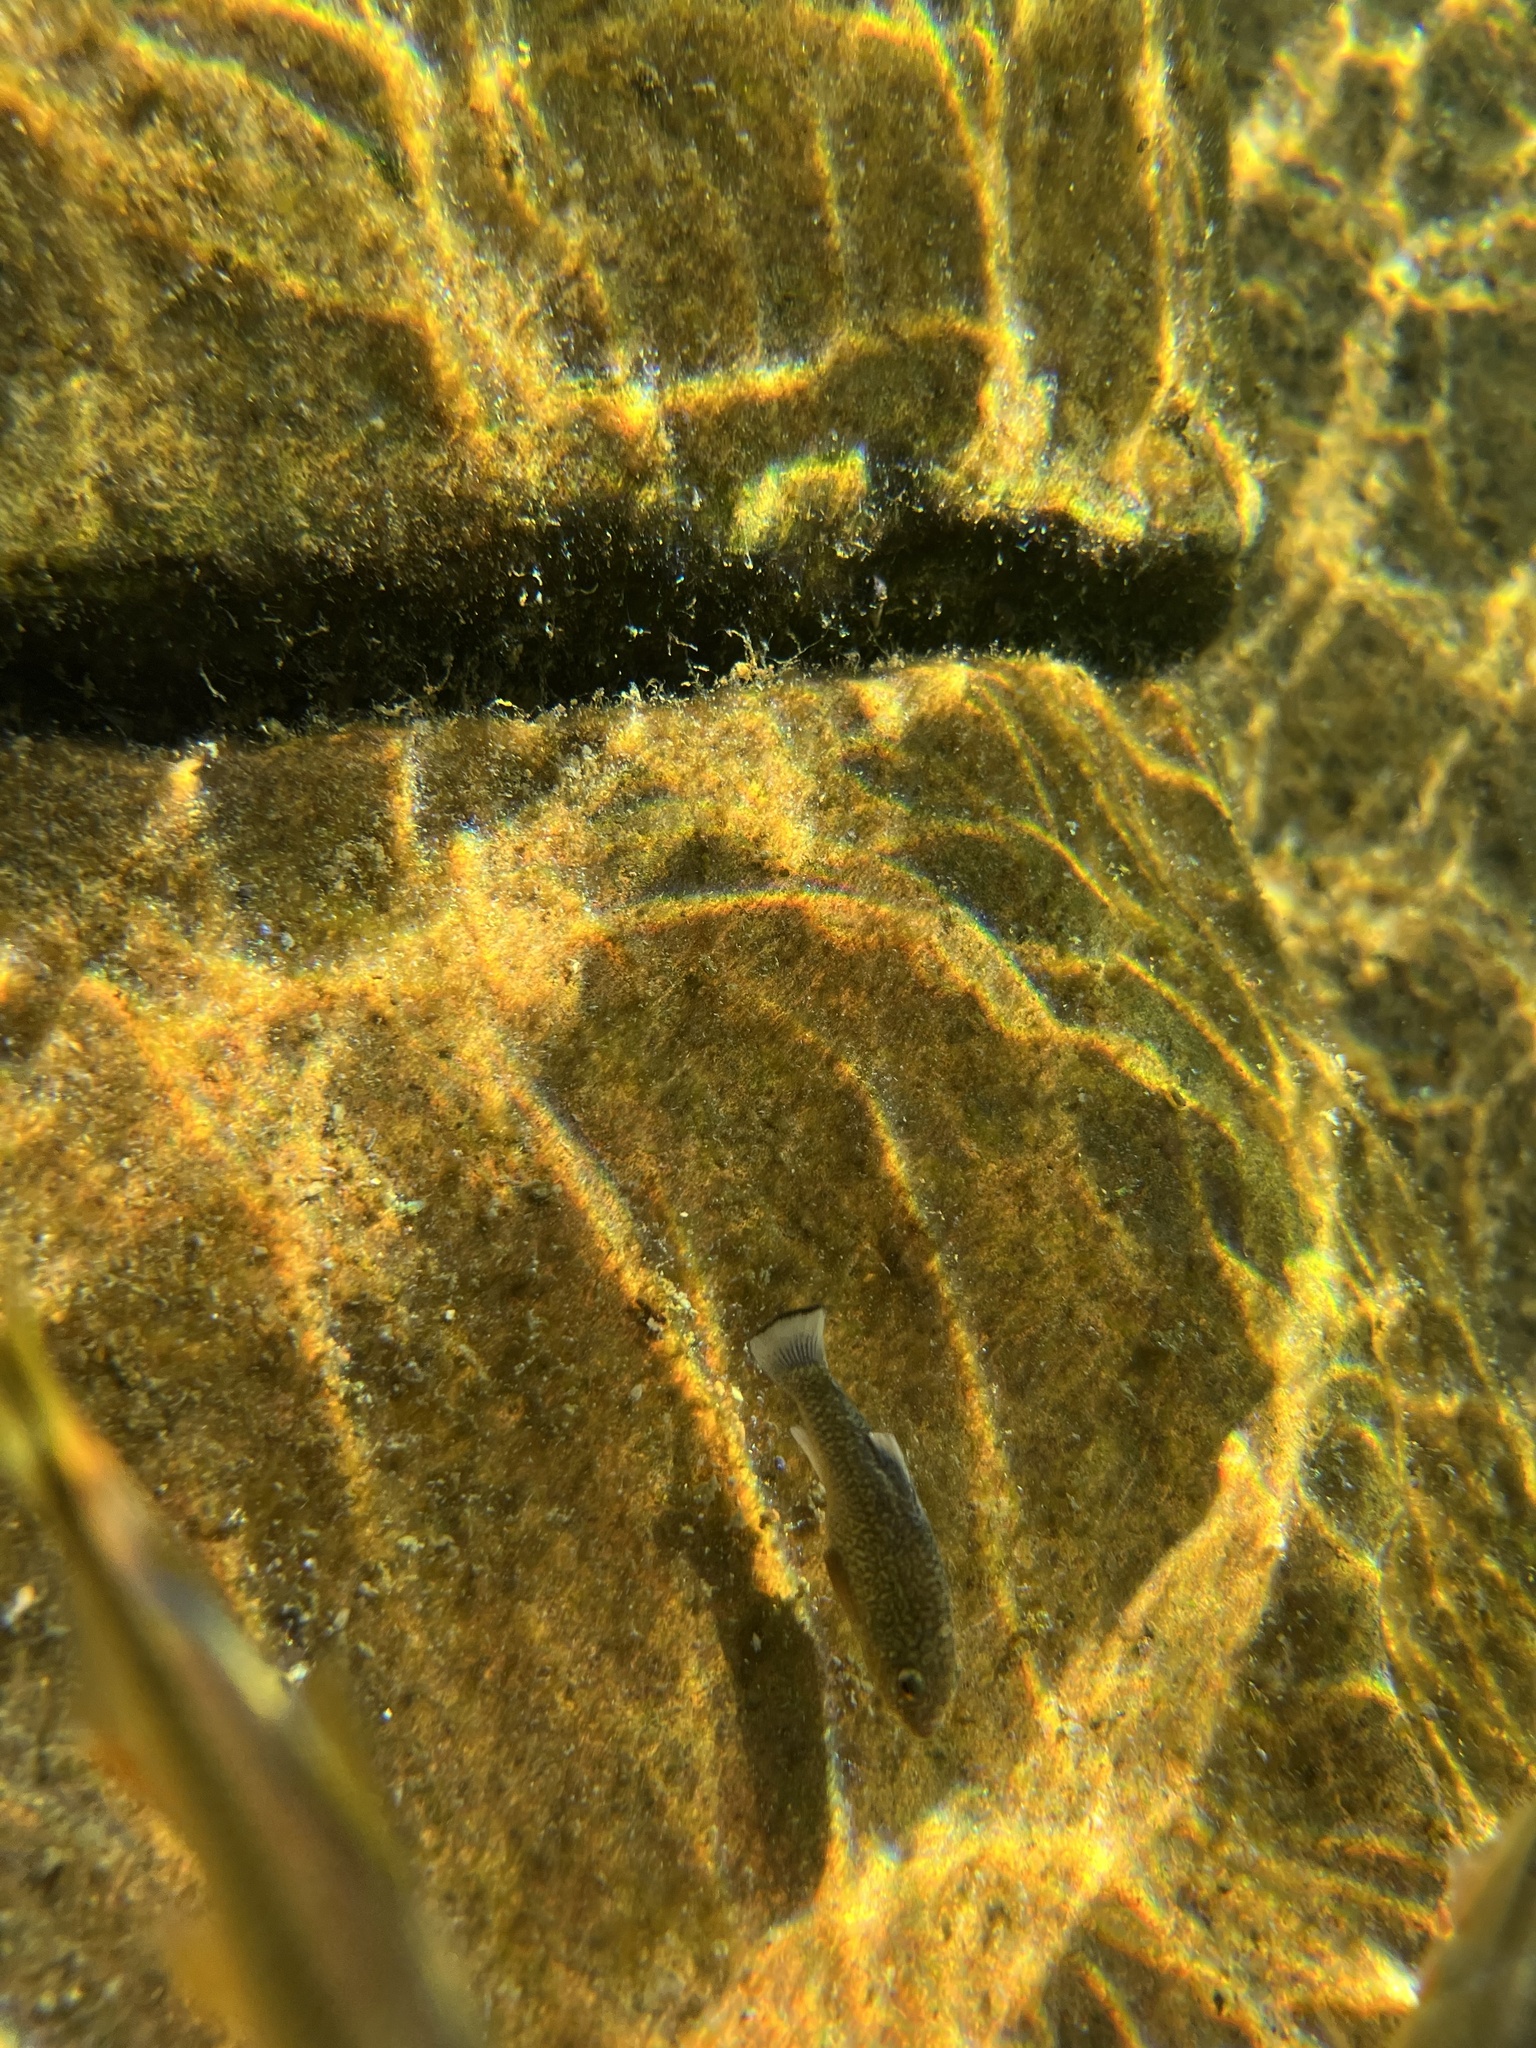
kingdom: Animalia
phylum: Chordata
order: Cyprinodontiformes
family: Cyprinodontidae
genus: Cyprinodon
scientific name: Cyprinodon elegans
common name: Comanche springs pupfish
